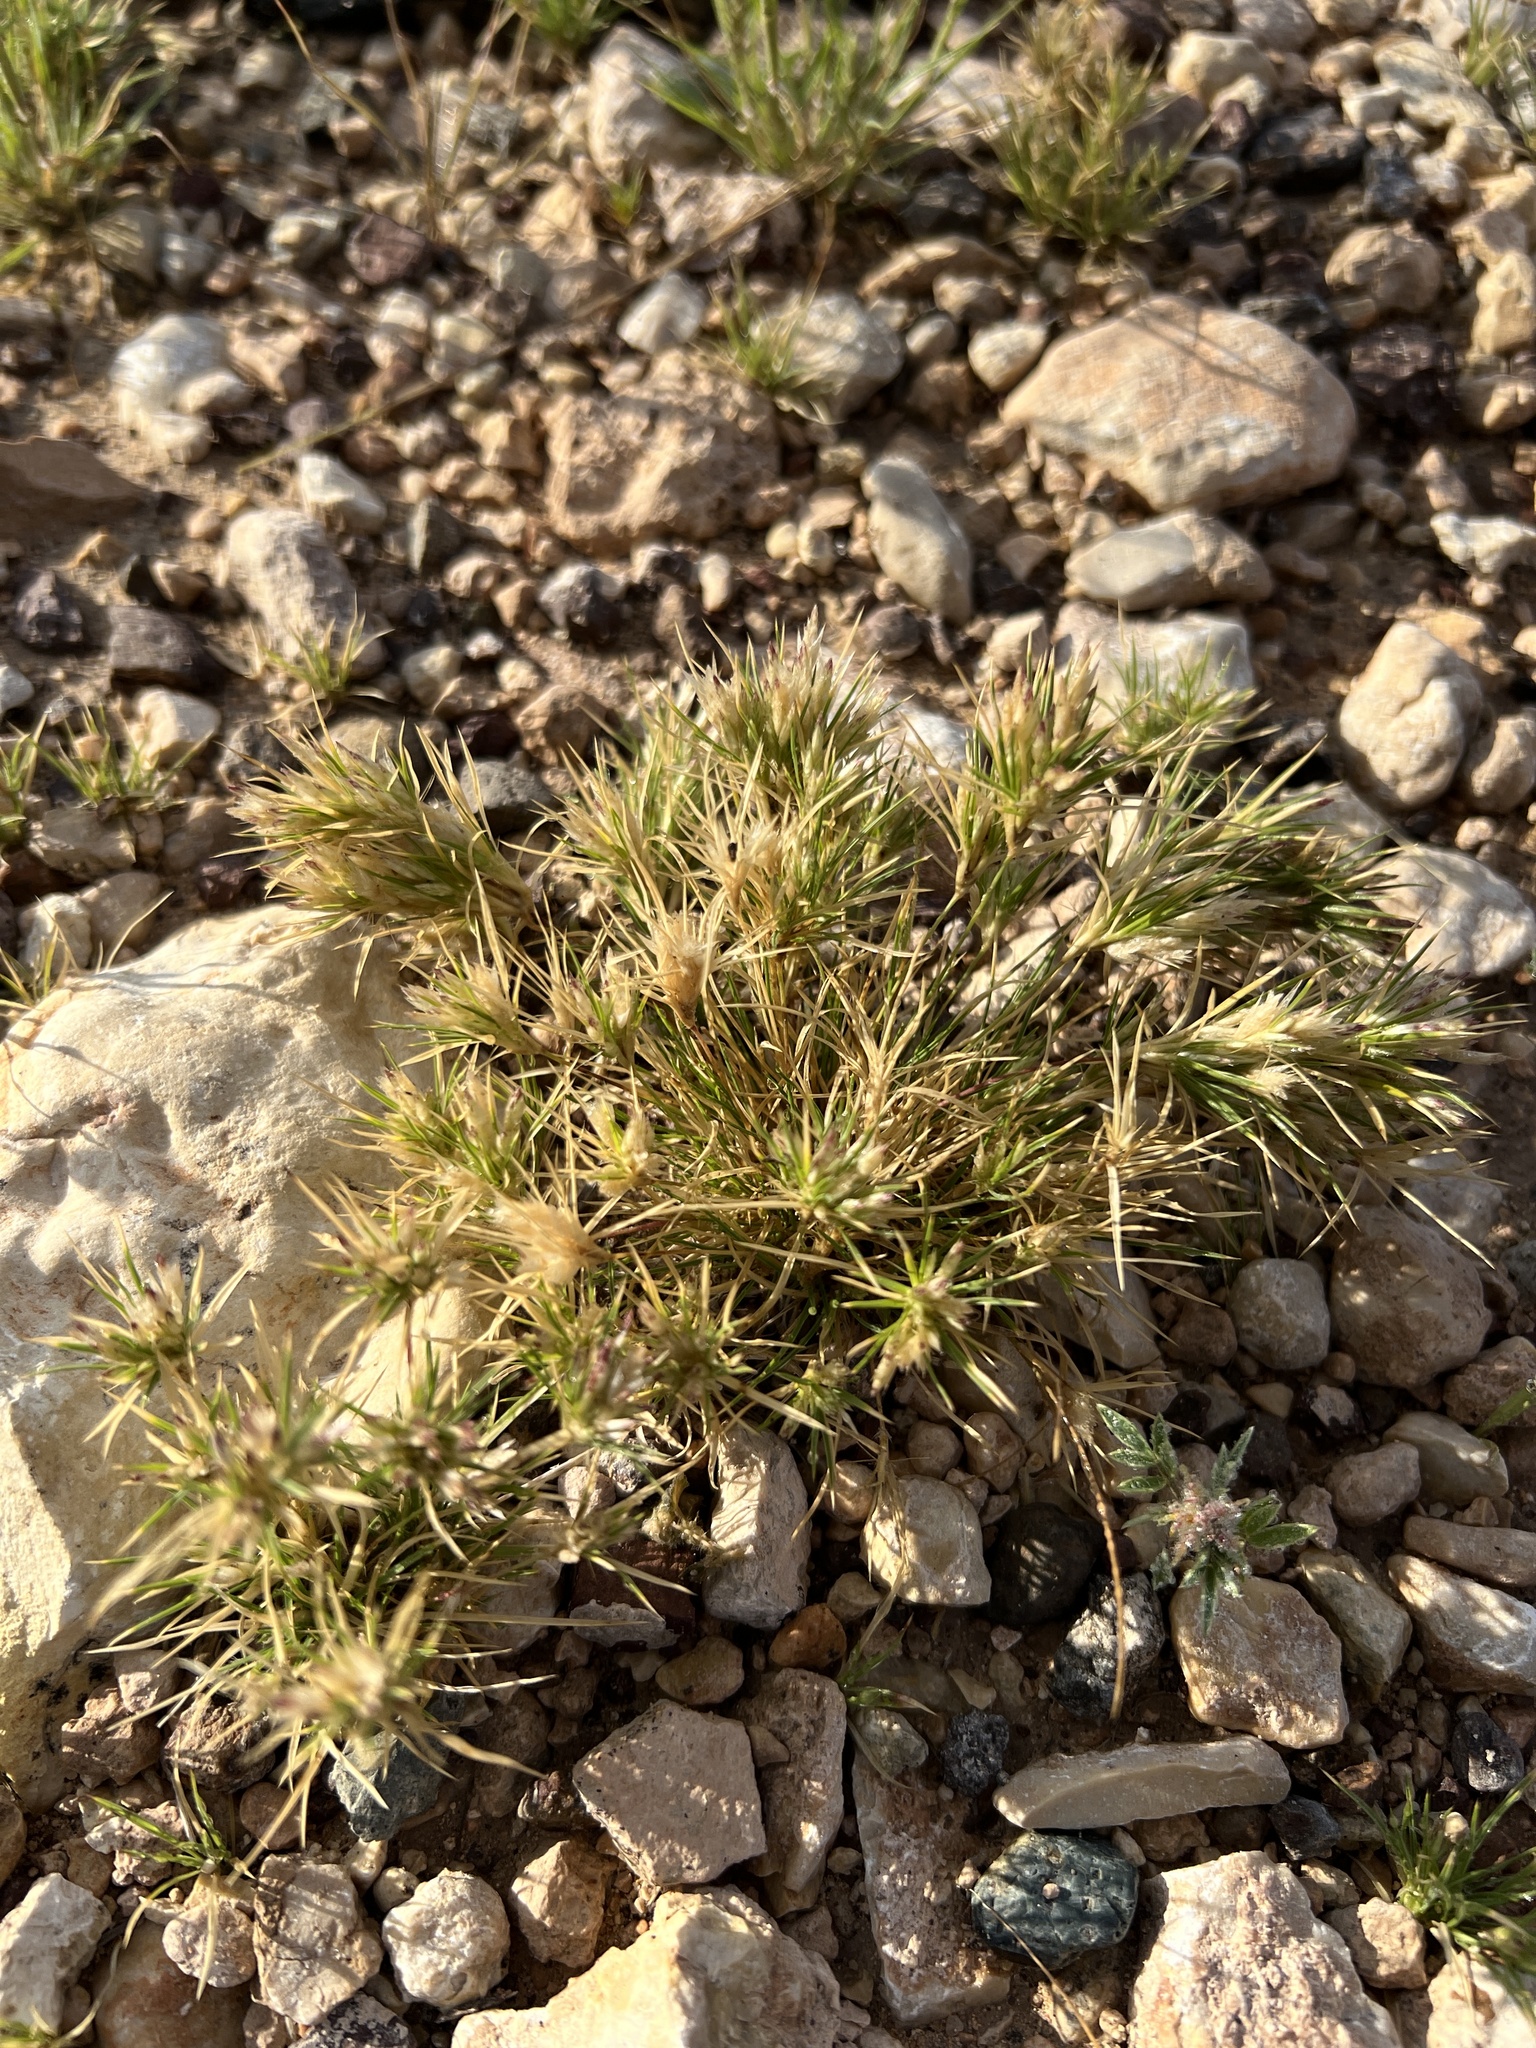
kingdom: Plantae
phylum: Tracheophyta
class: Liliopsida
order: Poales
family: Poaceae
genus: Dasyochloa
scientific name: Dasyochloa pulchella
